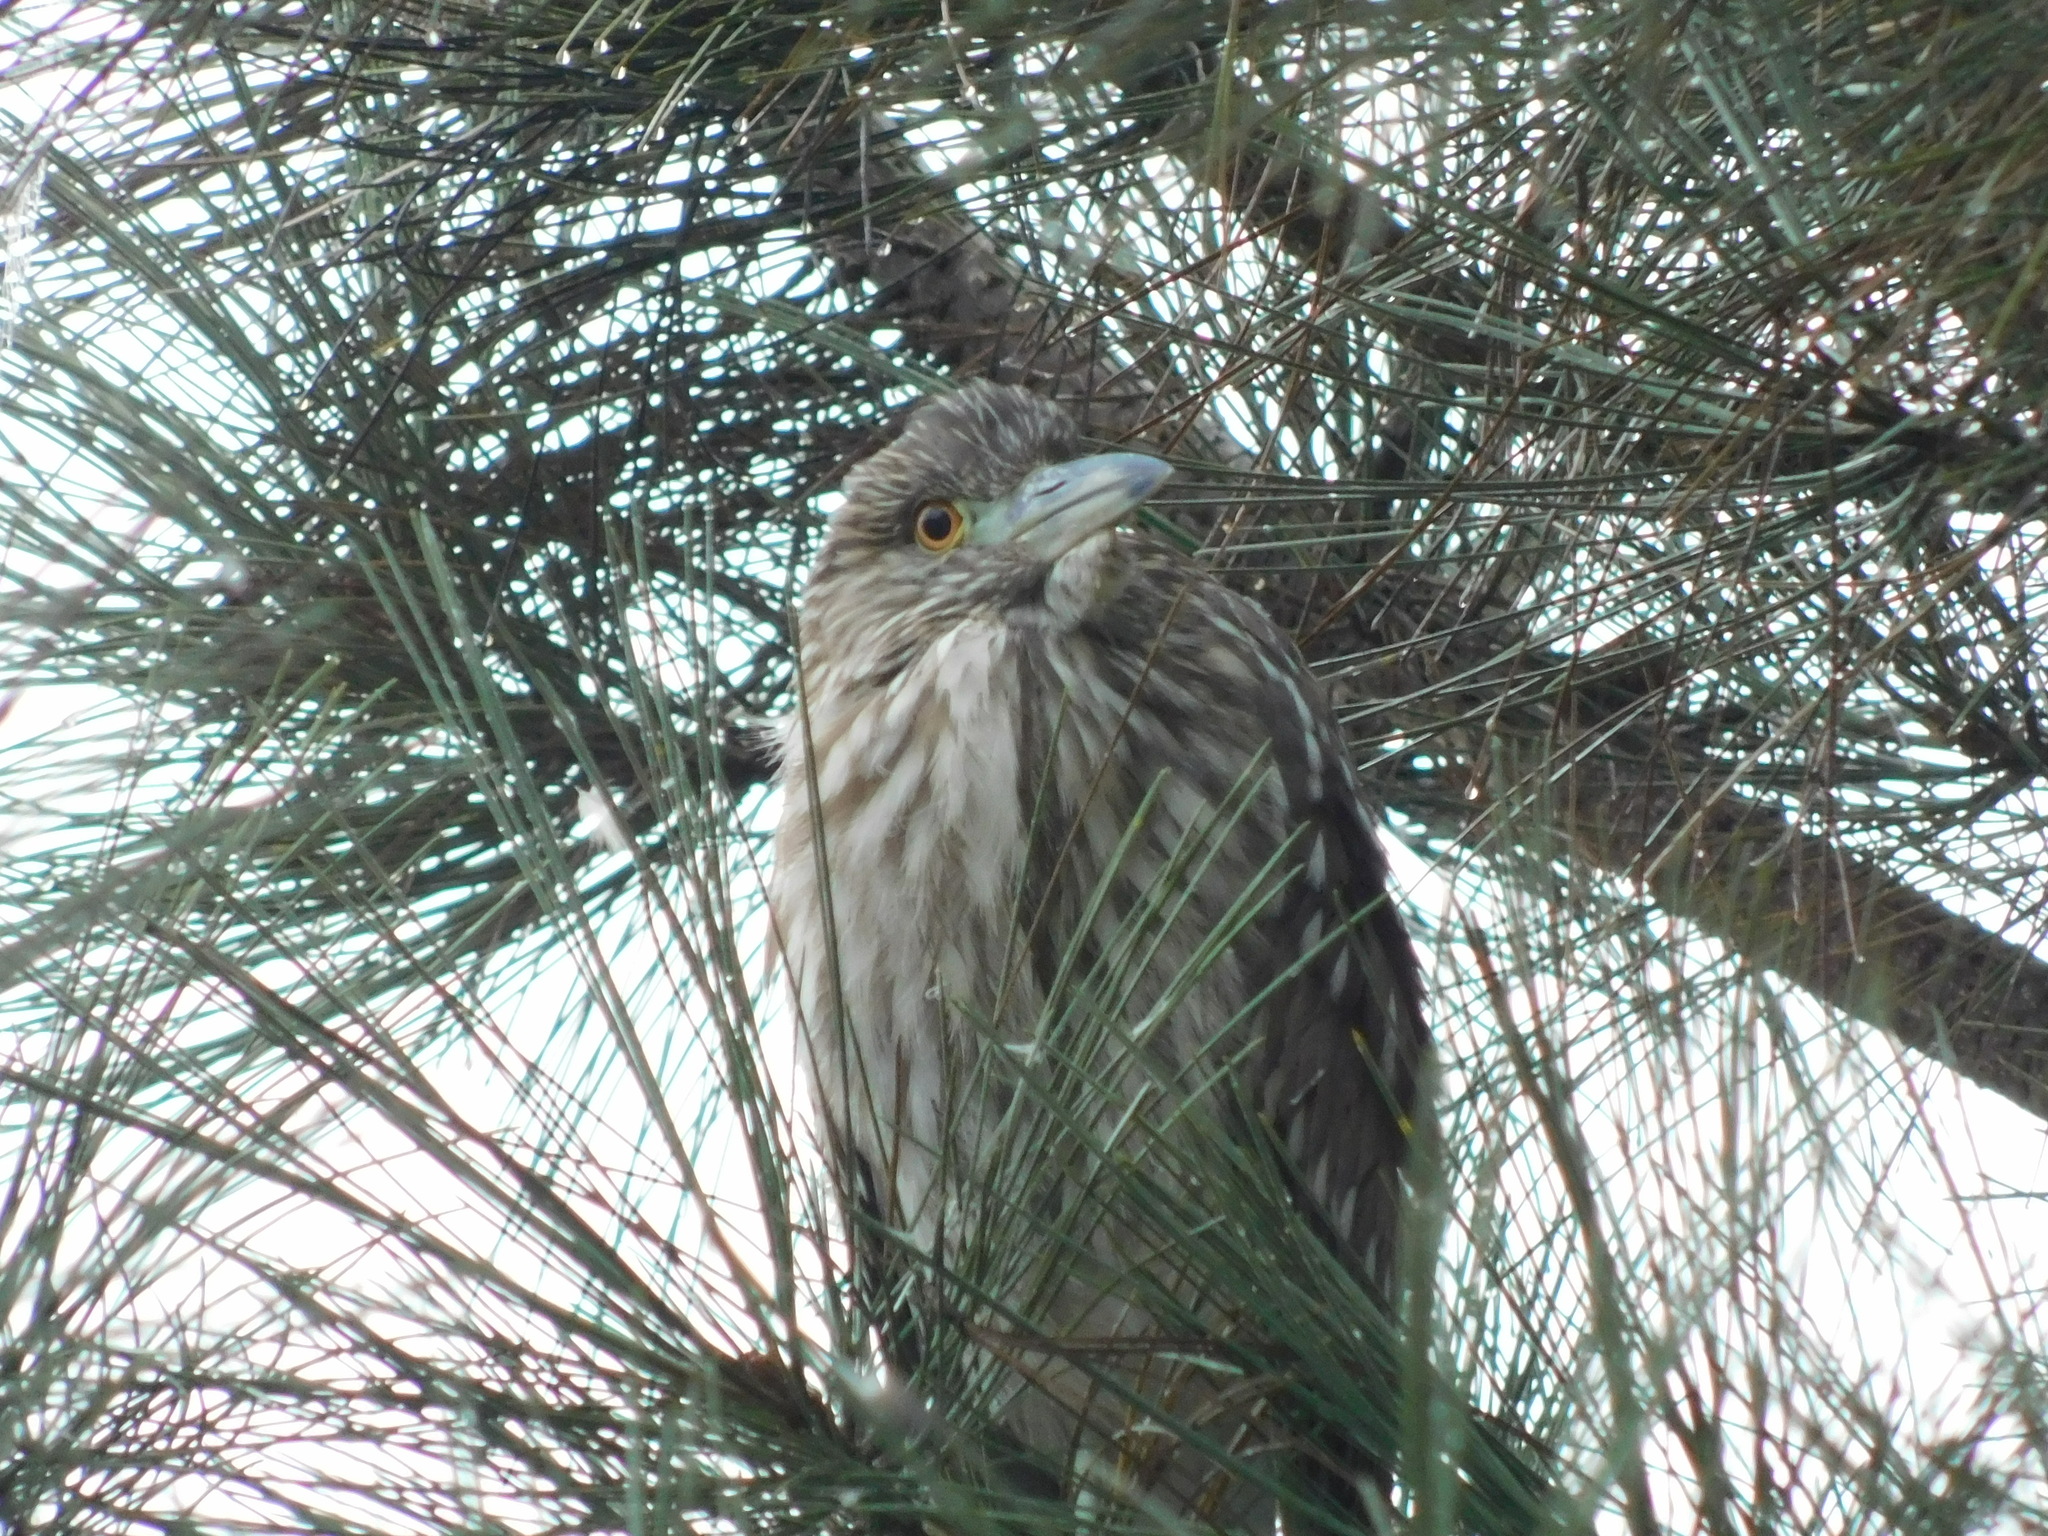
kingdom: Animalia
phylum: Chordata
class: Aves
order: Pelecaniformes
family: Ardeidae
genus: Nycticorax
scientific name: Nycticorax nycticorax
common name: Black-crowned night heron
